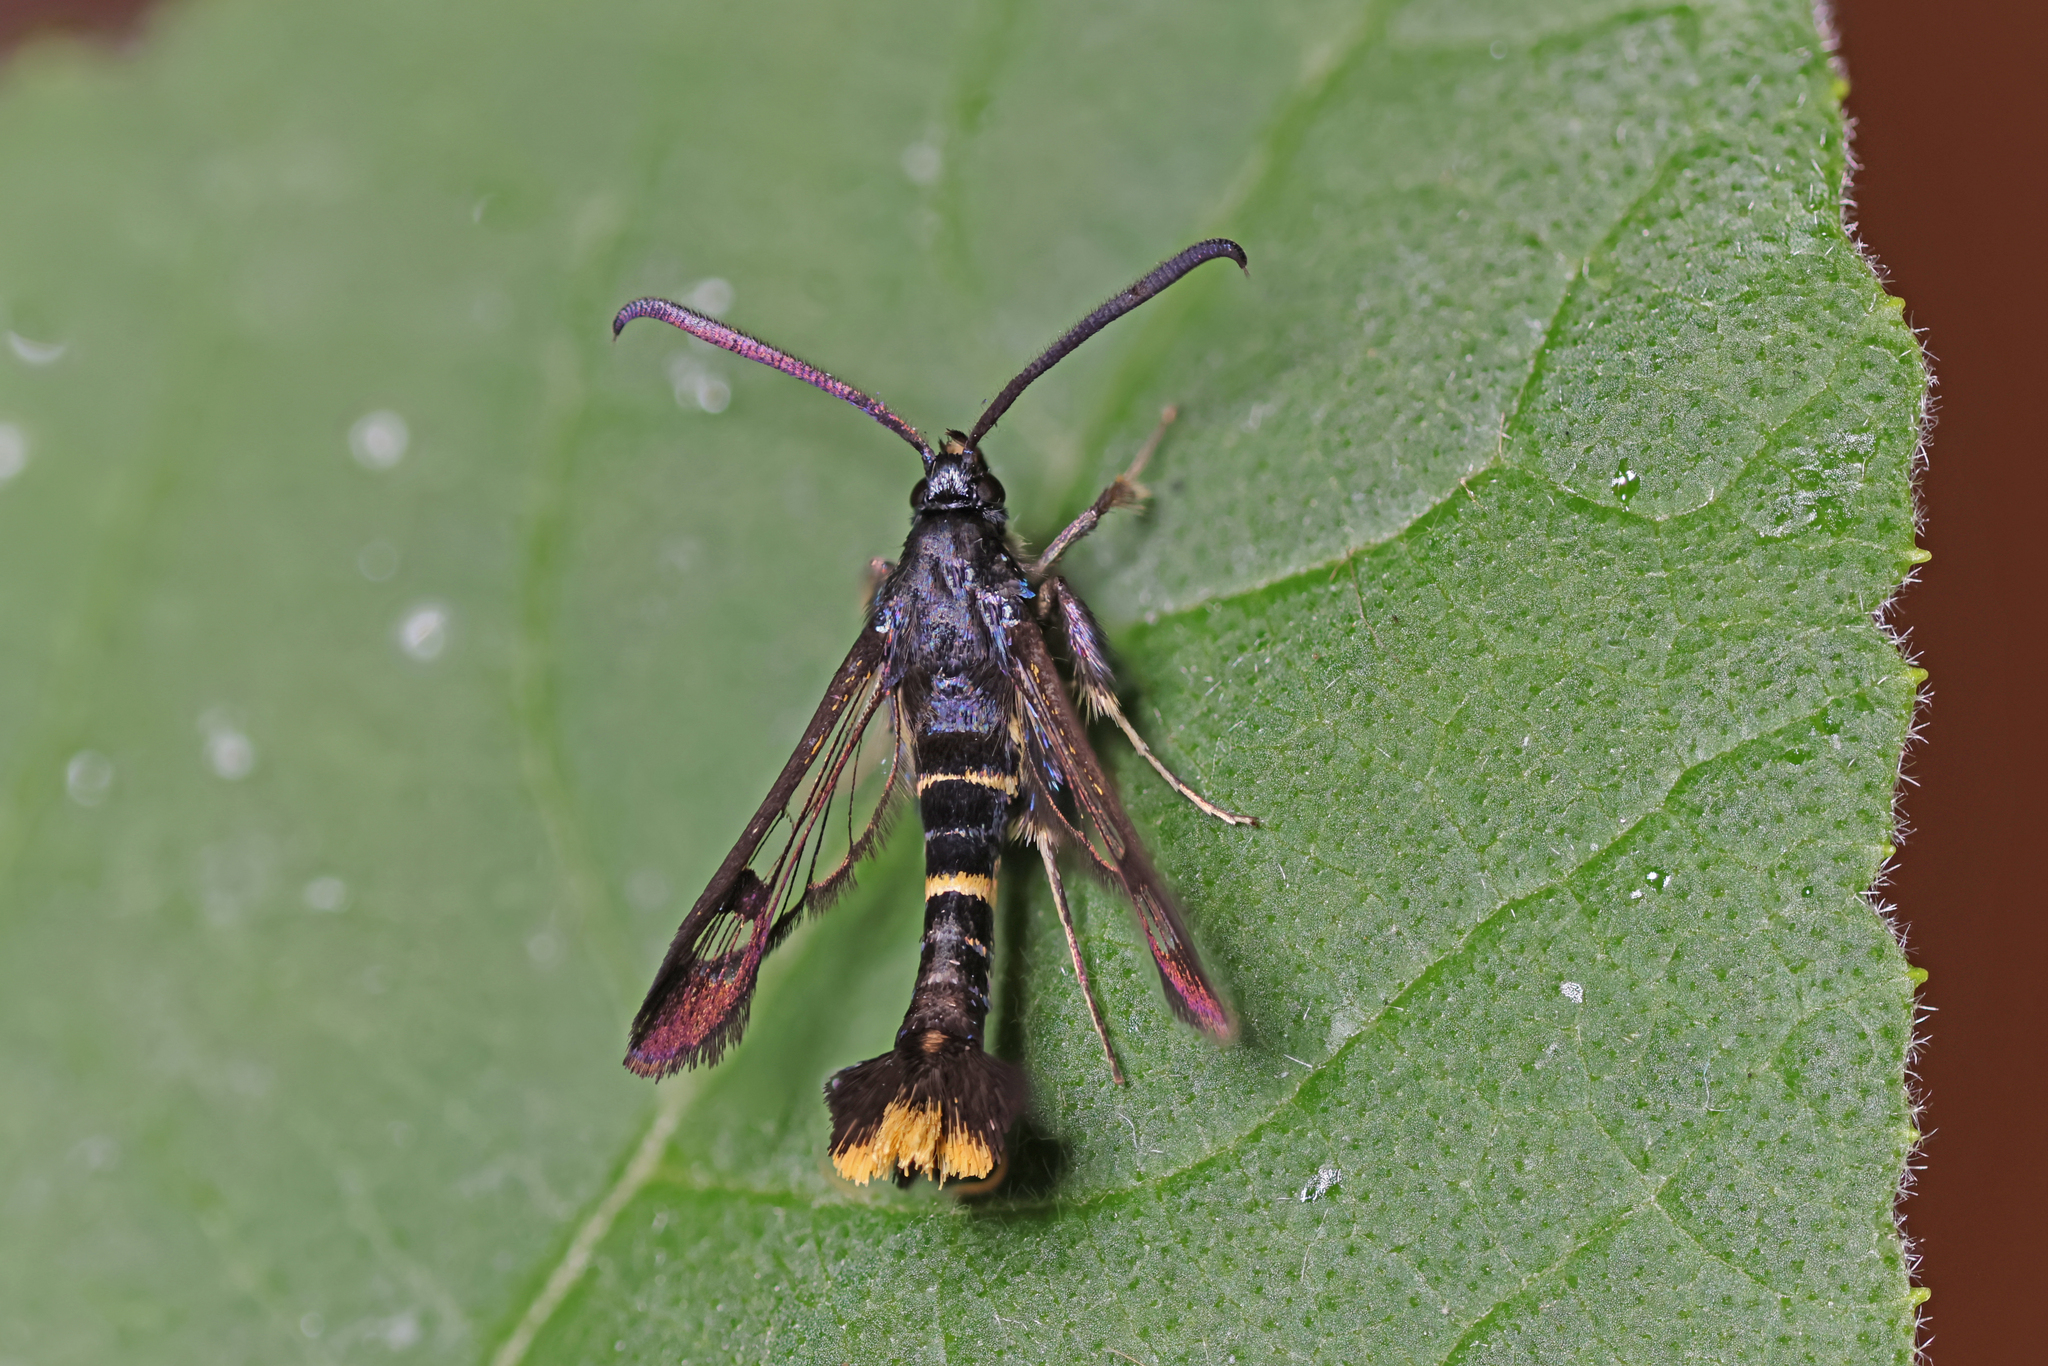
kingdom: Animalia
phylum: Arthropoda
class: Insecta
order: Lepidoptera
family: Sesiidae
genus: Synanthedon
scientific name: Synanthedon andrenaeformis
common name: Orange-tailed clearwing
